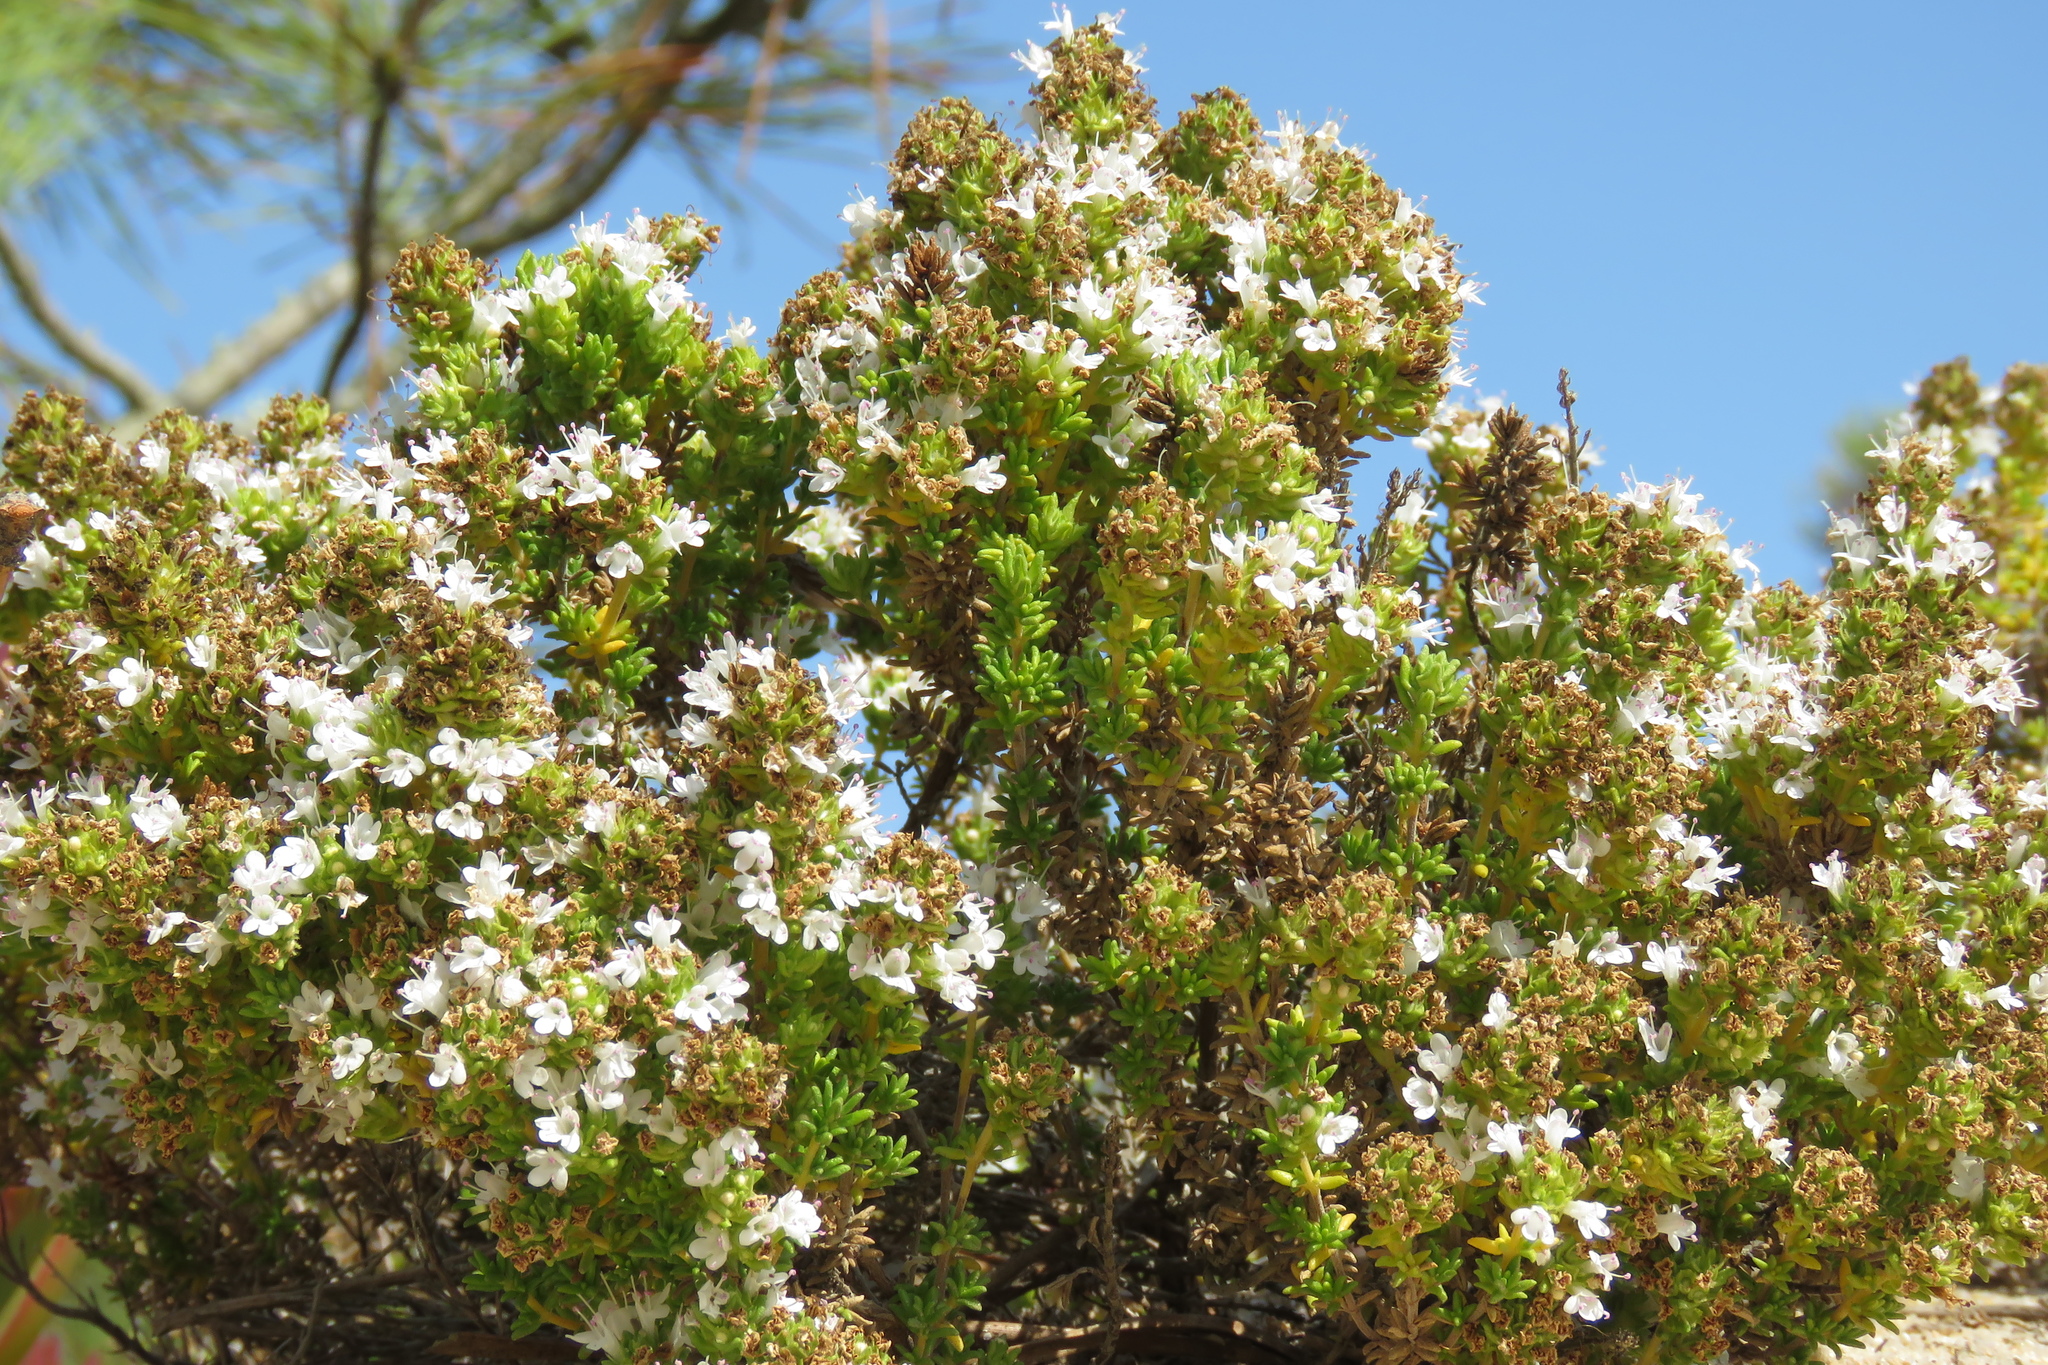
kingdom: Plantae
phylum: Tracheophyta
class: Magnoliopsida
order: Lamiales
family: Lamiaceae
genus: Thymus
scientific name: Thymus carnosus
